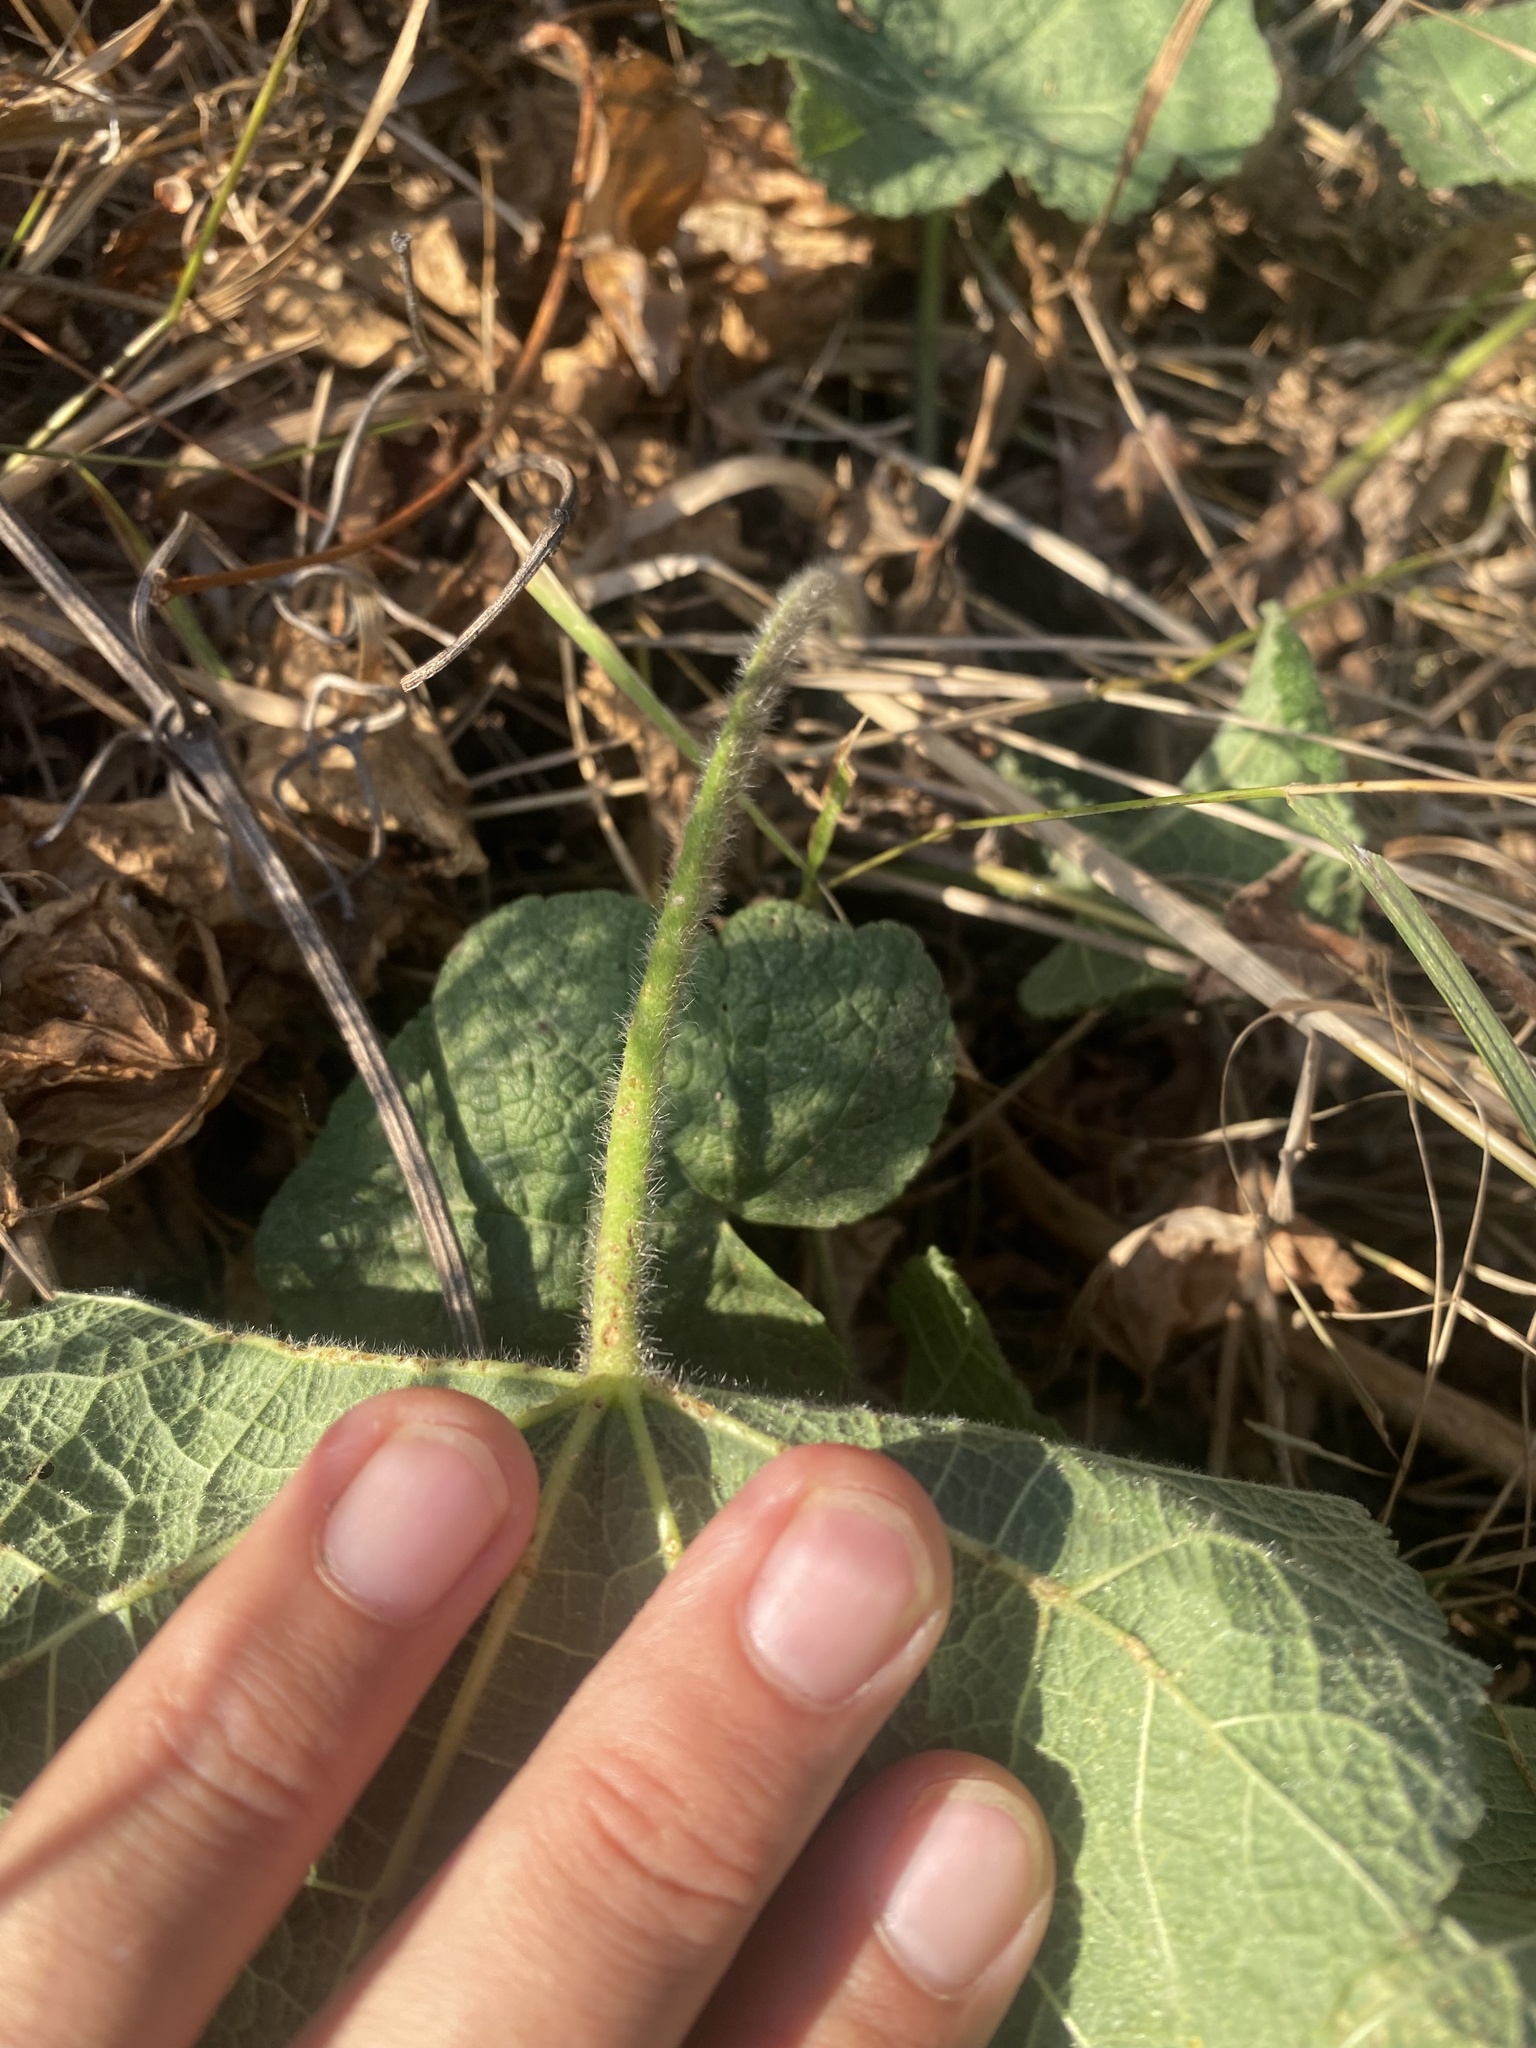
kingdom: Plantae
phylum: Tracheophyta
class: Magnoliopsida
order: Malvales
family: Malvaceae
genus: Alcea
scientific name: Alcea rugosa
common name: Russian hollyhock
